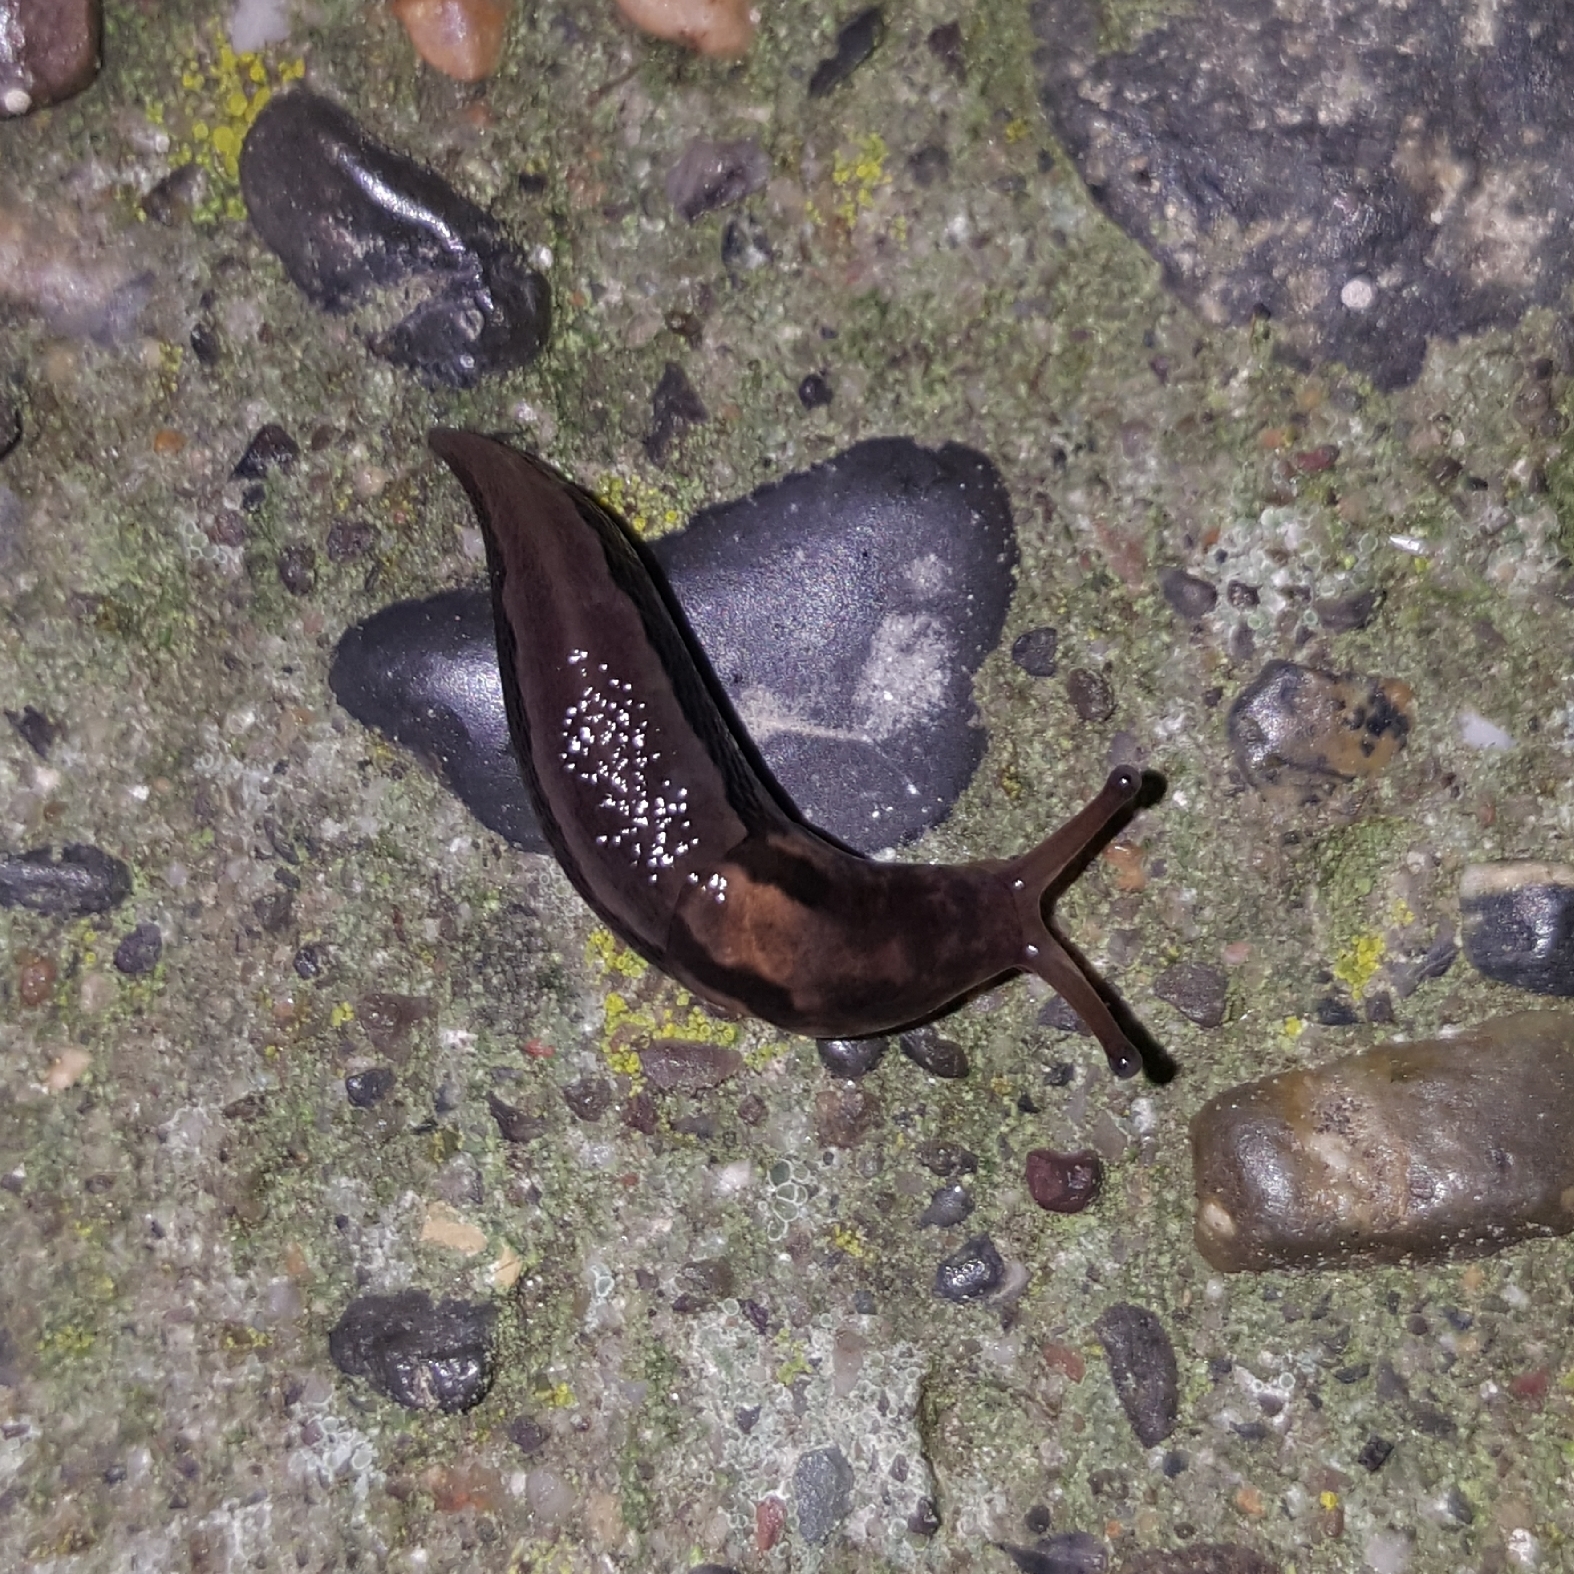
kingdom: Animalia
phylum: Mollusca
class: Gastropoda
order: Stylommatophora
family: Limacidae
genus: Limax
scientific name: Limax maximus
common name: Great grey slug
